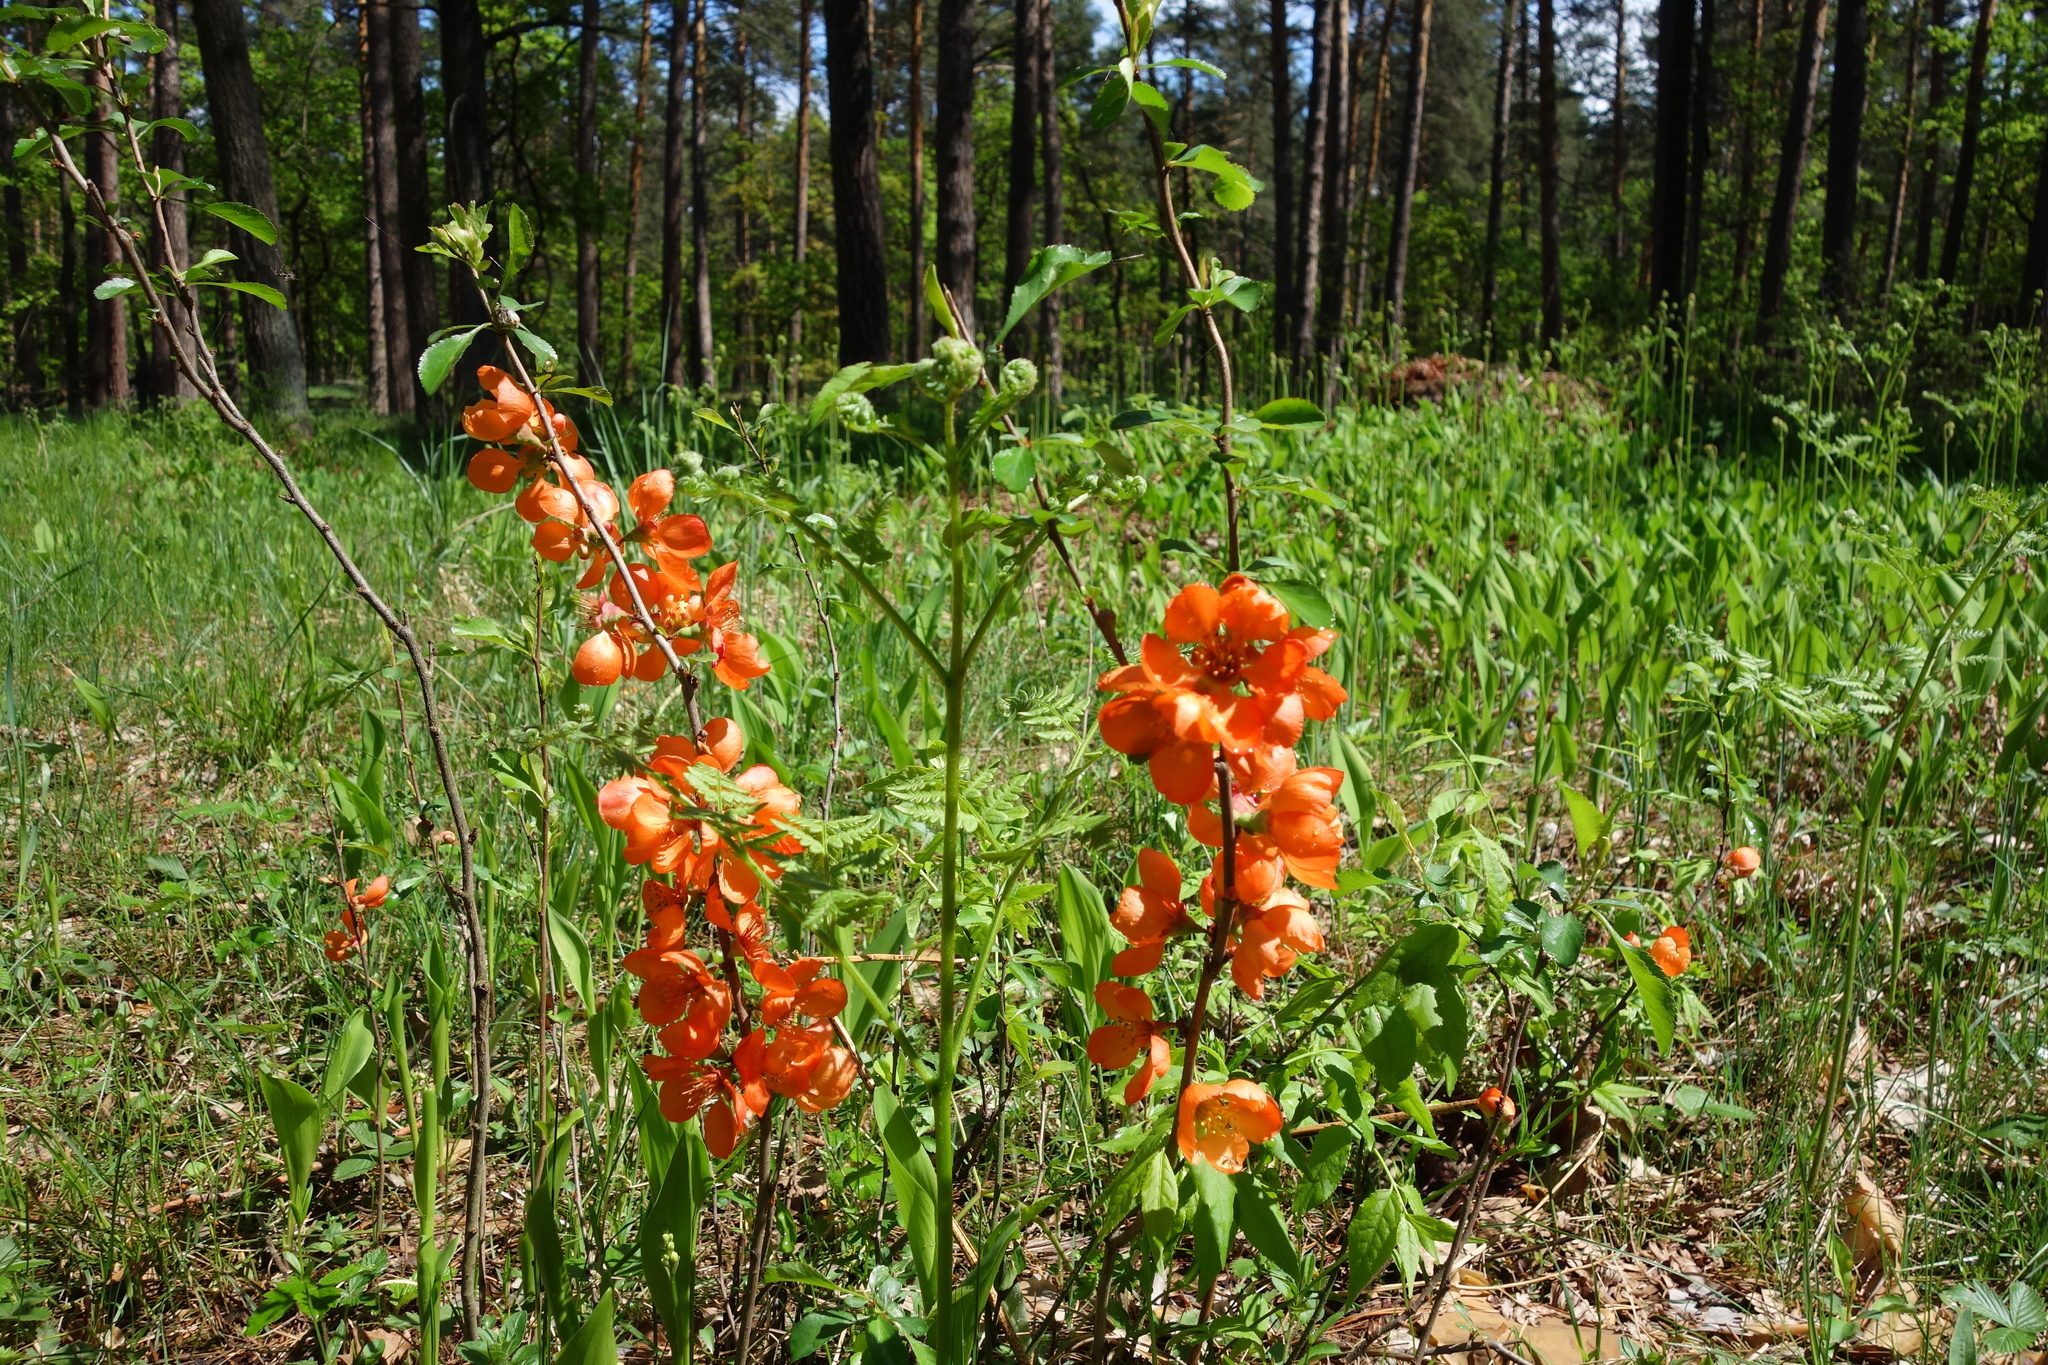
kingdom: Plantae
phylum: Tracheophyta
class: Magnoliopsida
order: Rosales
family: Rosaceae
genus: Chaenomeles
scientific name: Chaenomeles japonica
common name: Japanese quince
